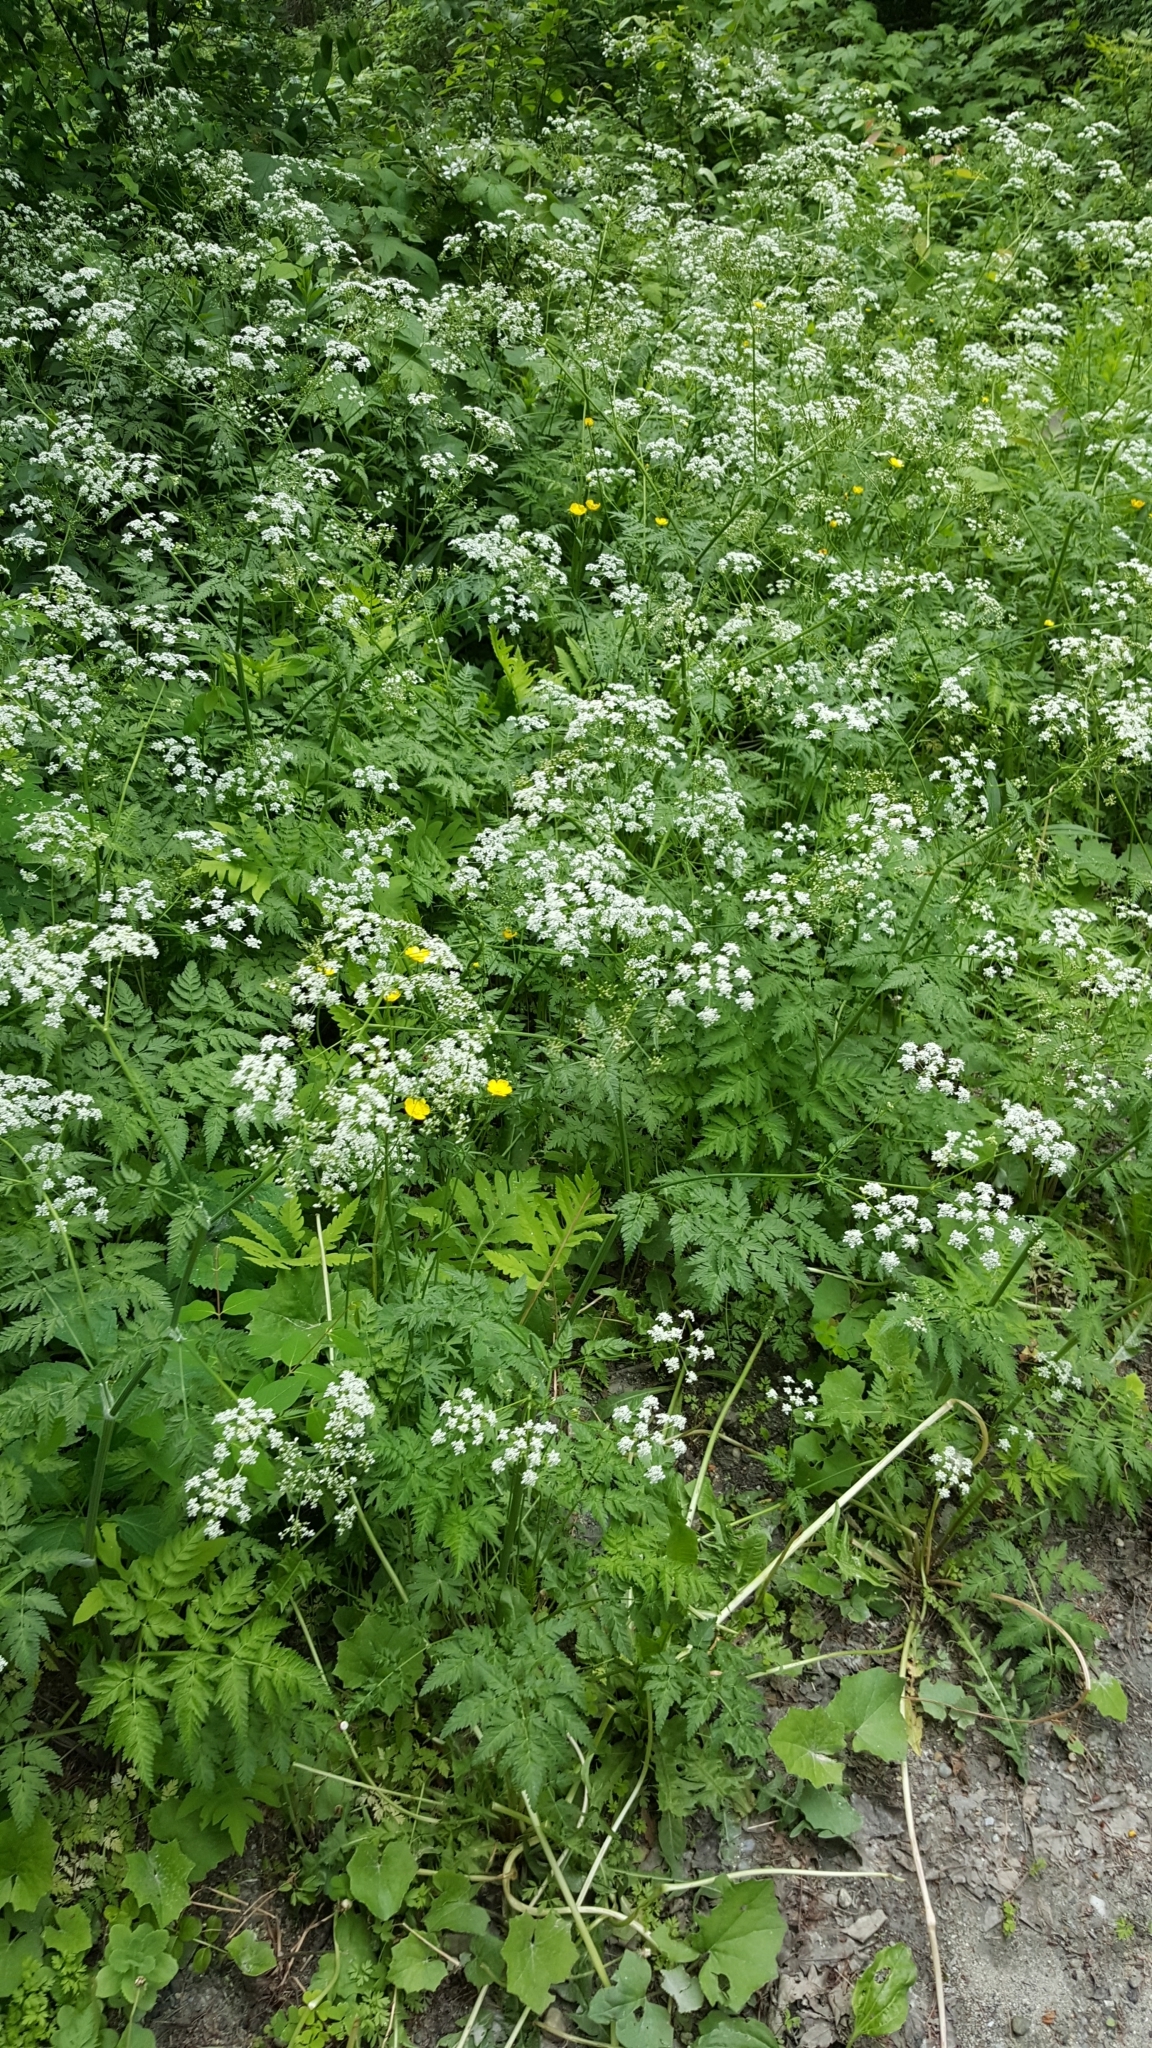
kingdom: Plantae
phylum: Tracheophyta
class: Magnoliopsida
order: Apiales
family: Apiaceae
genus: Anthriscus
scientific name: Anthriscus sylvestris
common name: Cow parsley
